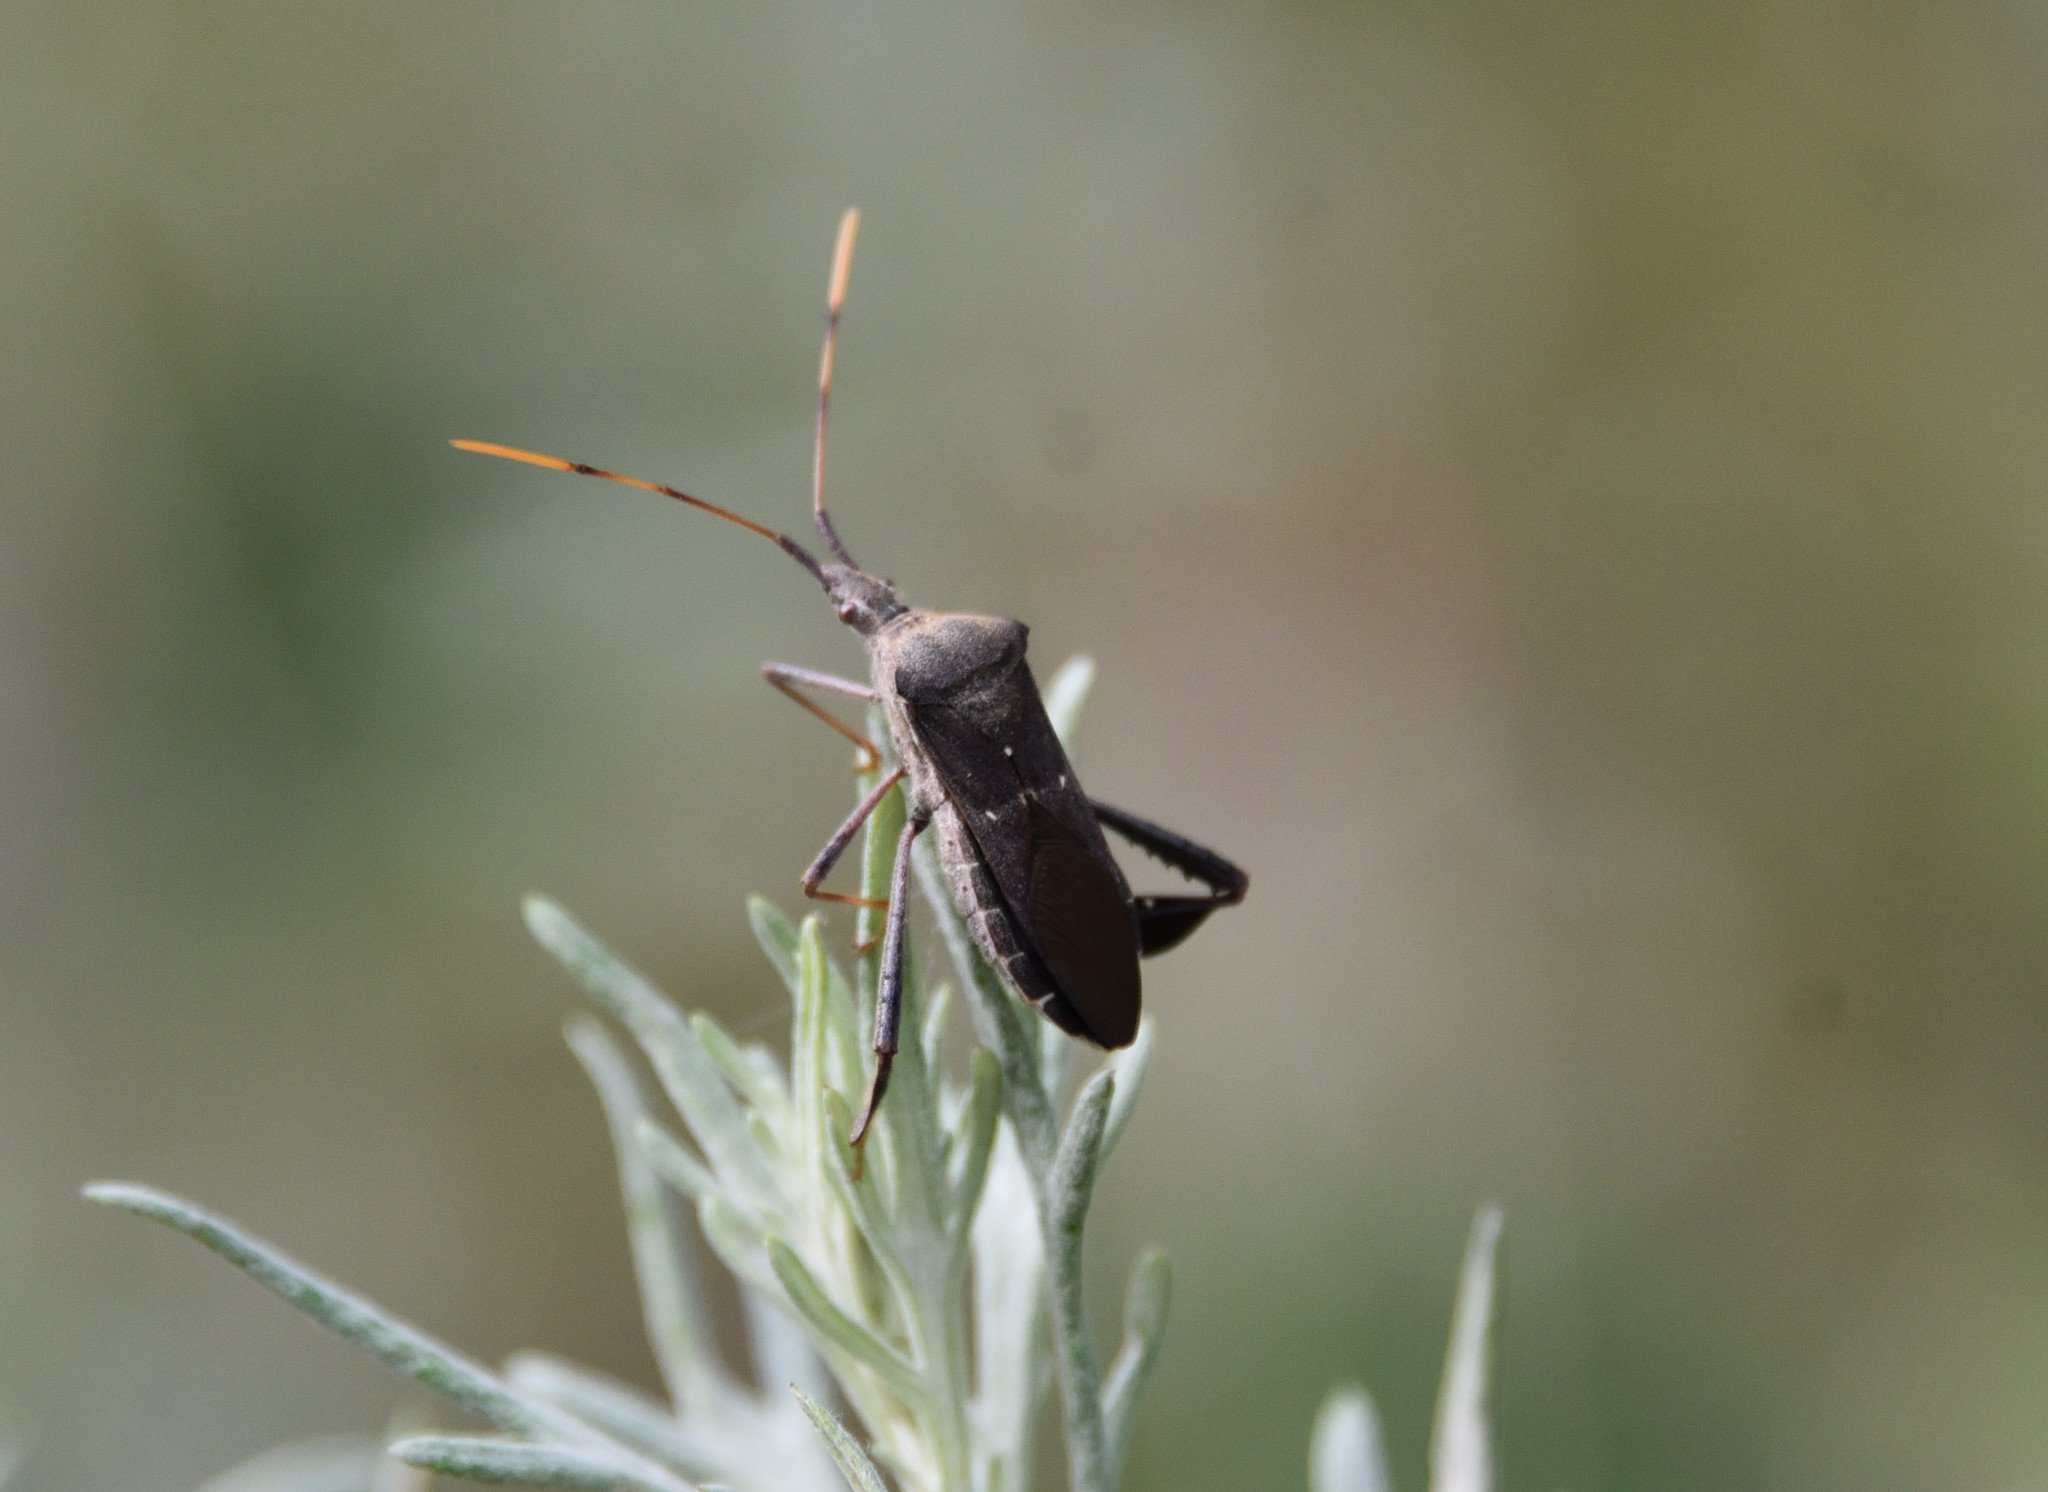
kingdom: Animalia
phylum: Arthropoda
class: Insecta
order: Hemiptera
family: Coreidae
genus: Leptoglossus
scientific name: Leptoglossus oppositus
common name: Northern leaf-footed bug
